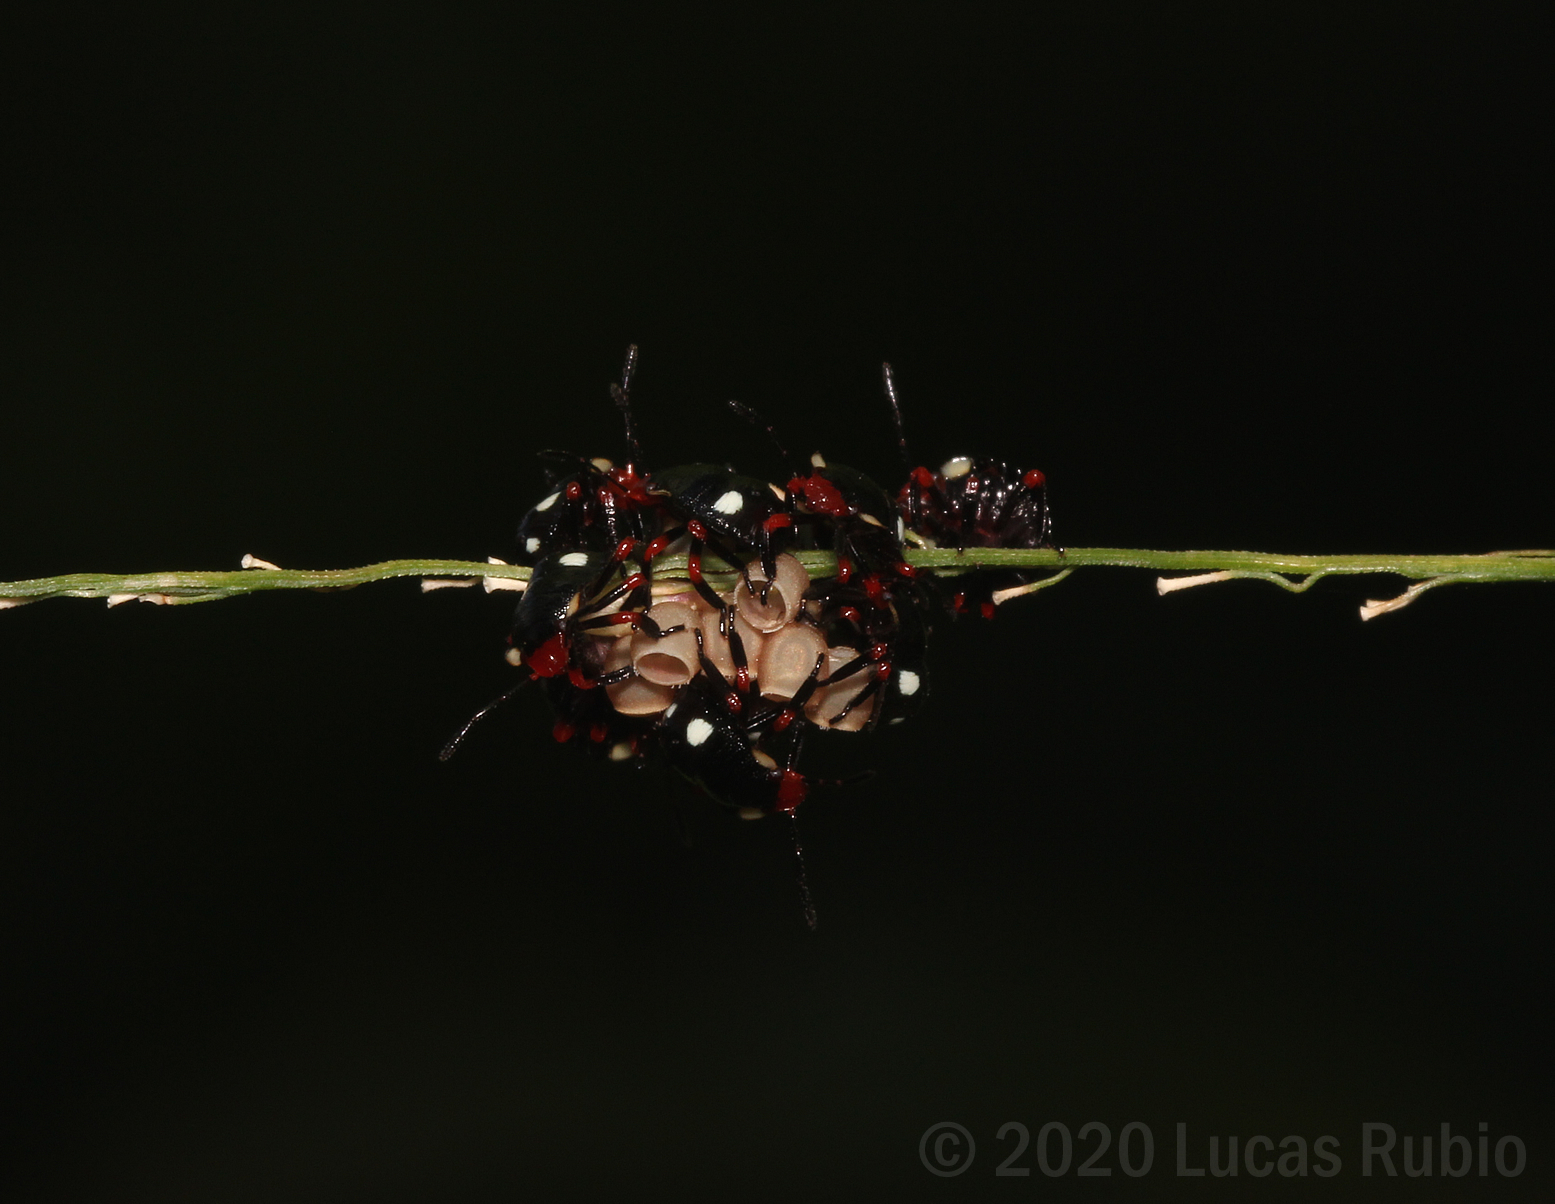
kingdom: Animalia
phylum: Arthropoda
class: Insecta
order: Hemiptera
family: Pentatomidae
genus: Chinavia
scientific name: Chinavia erythrocnemis
